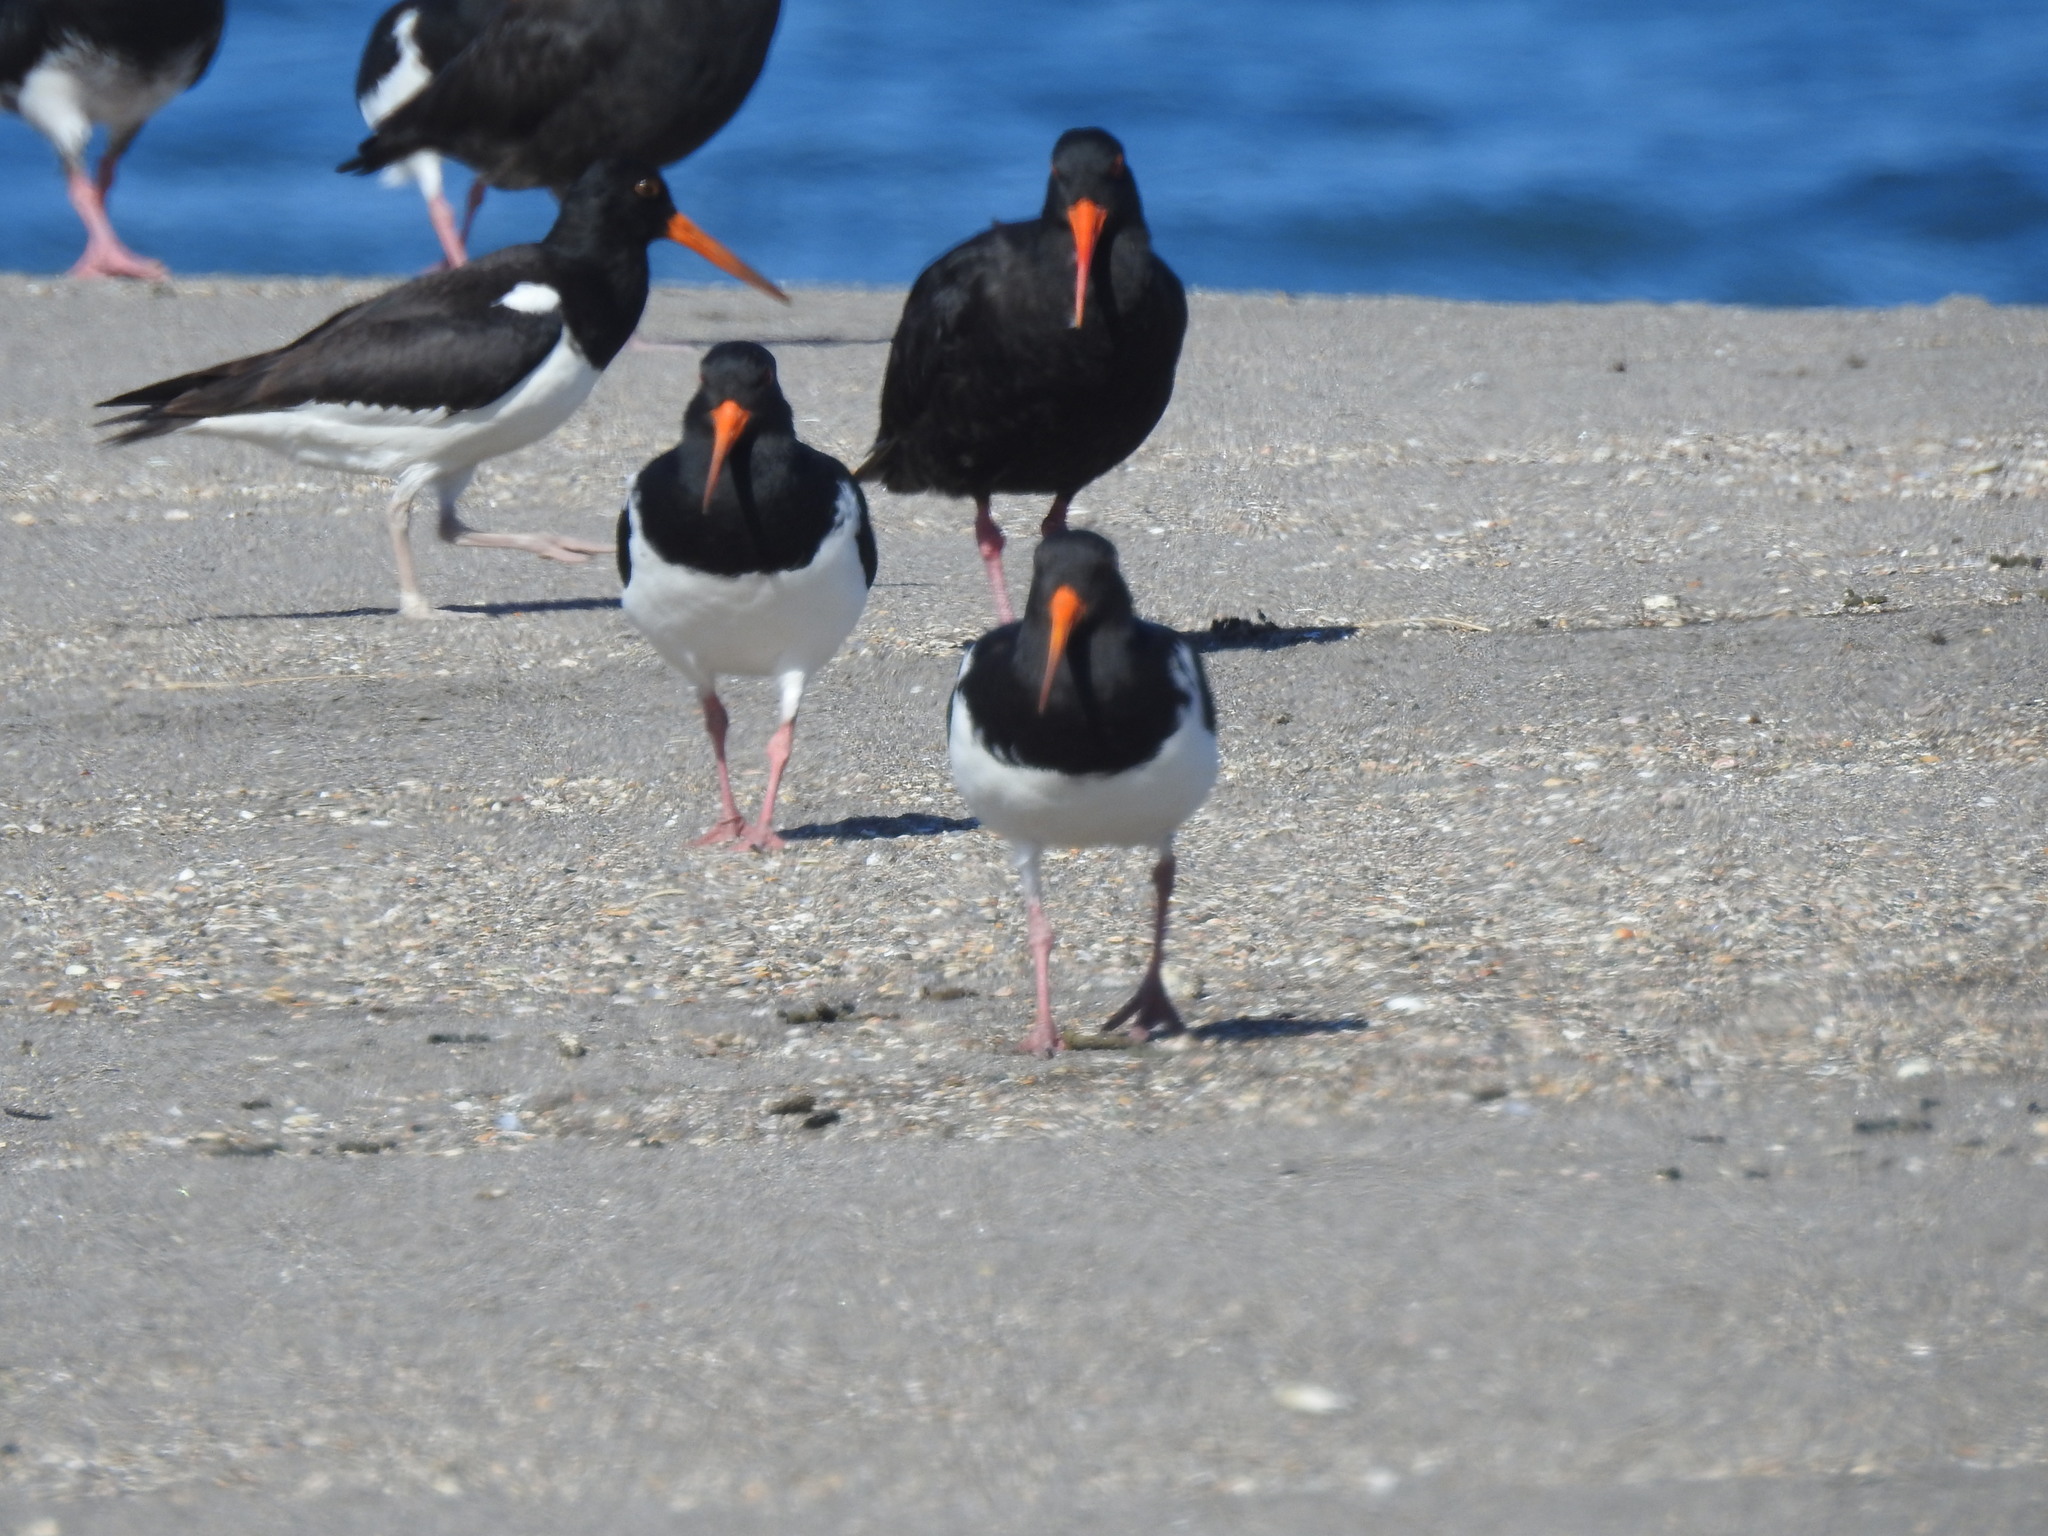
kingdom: Animalia
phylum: Chordata
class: Aves
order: Charadriiformes
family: Haematopodidae
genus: Haematopus
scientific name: Haematopus finschi
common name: South island oystercatcher
